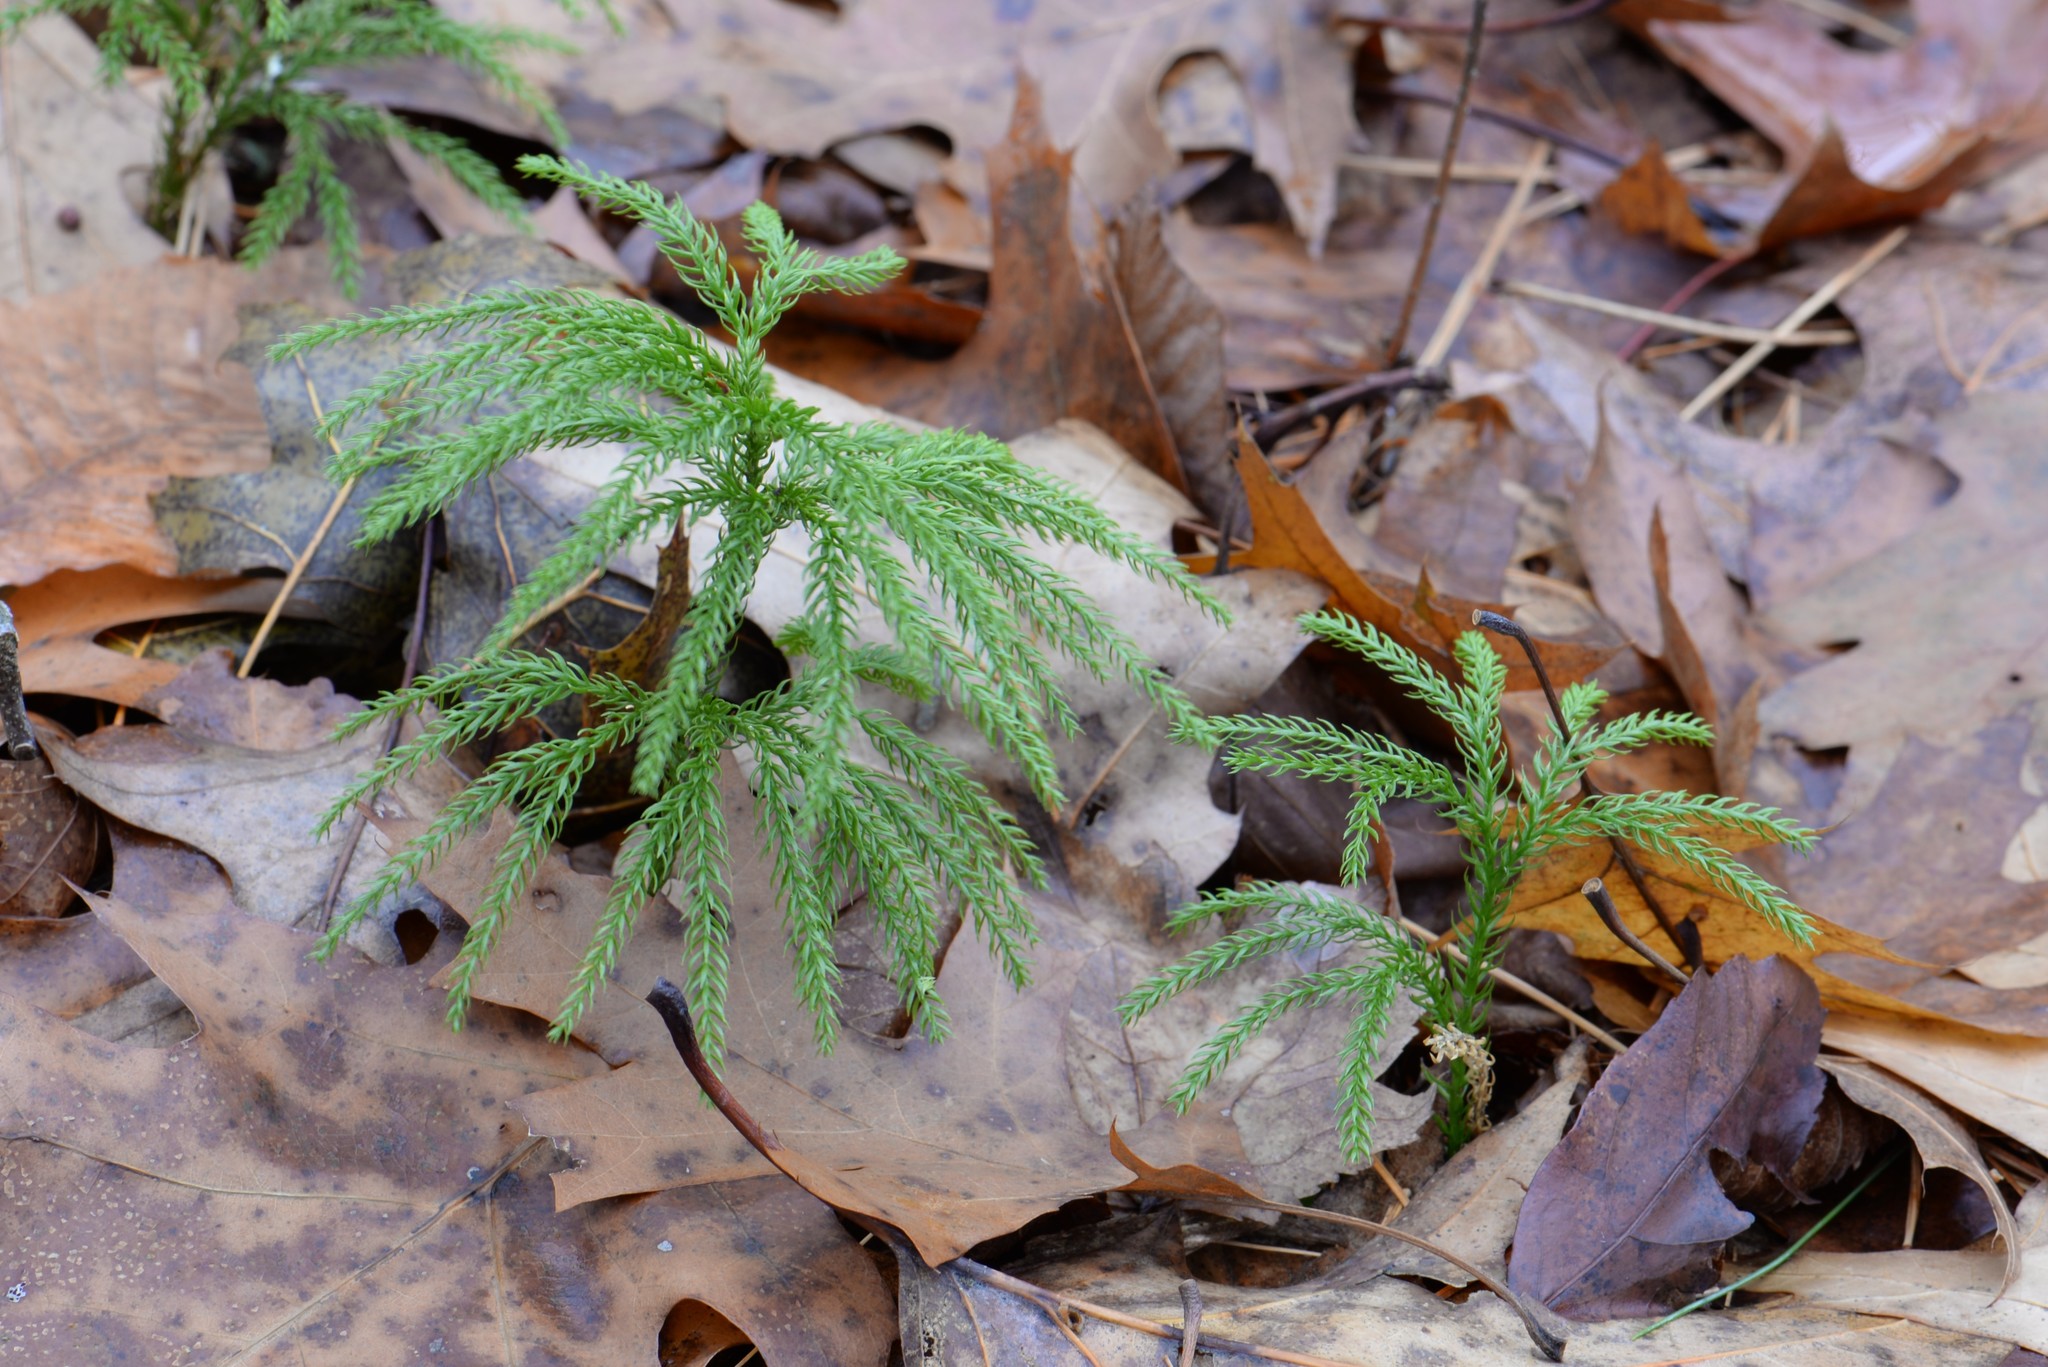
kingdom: Plantae
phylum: Tracheophyta
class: Lycopodiopsida
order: Lycopodiales
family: Lycopodiaceae
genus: Dendrolycopodium
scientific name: Dendrolycopodium dendroideum
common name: Northern tree-clubmoss
